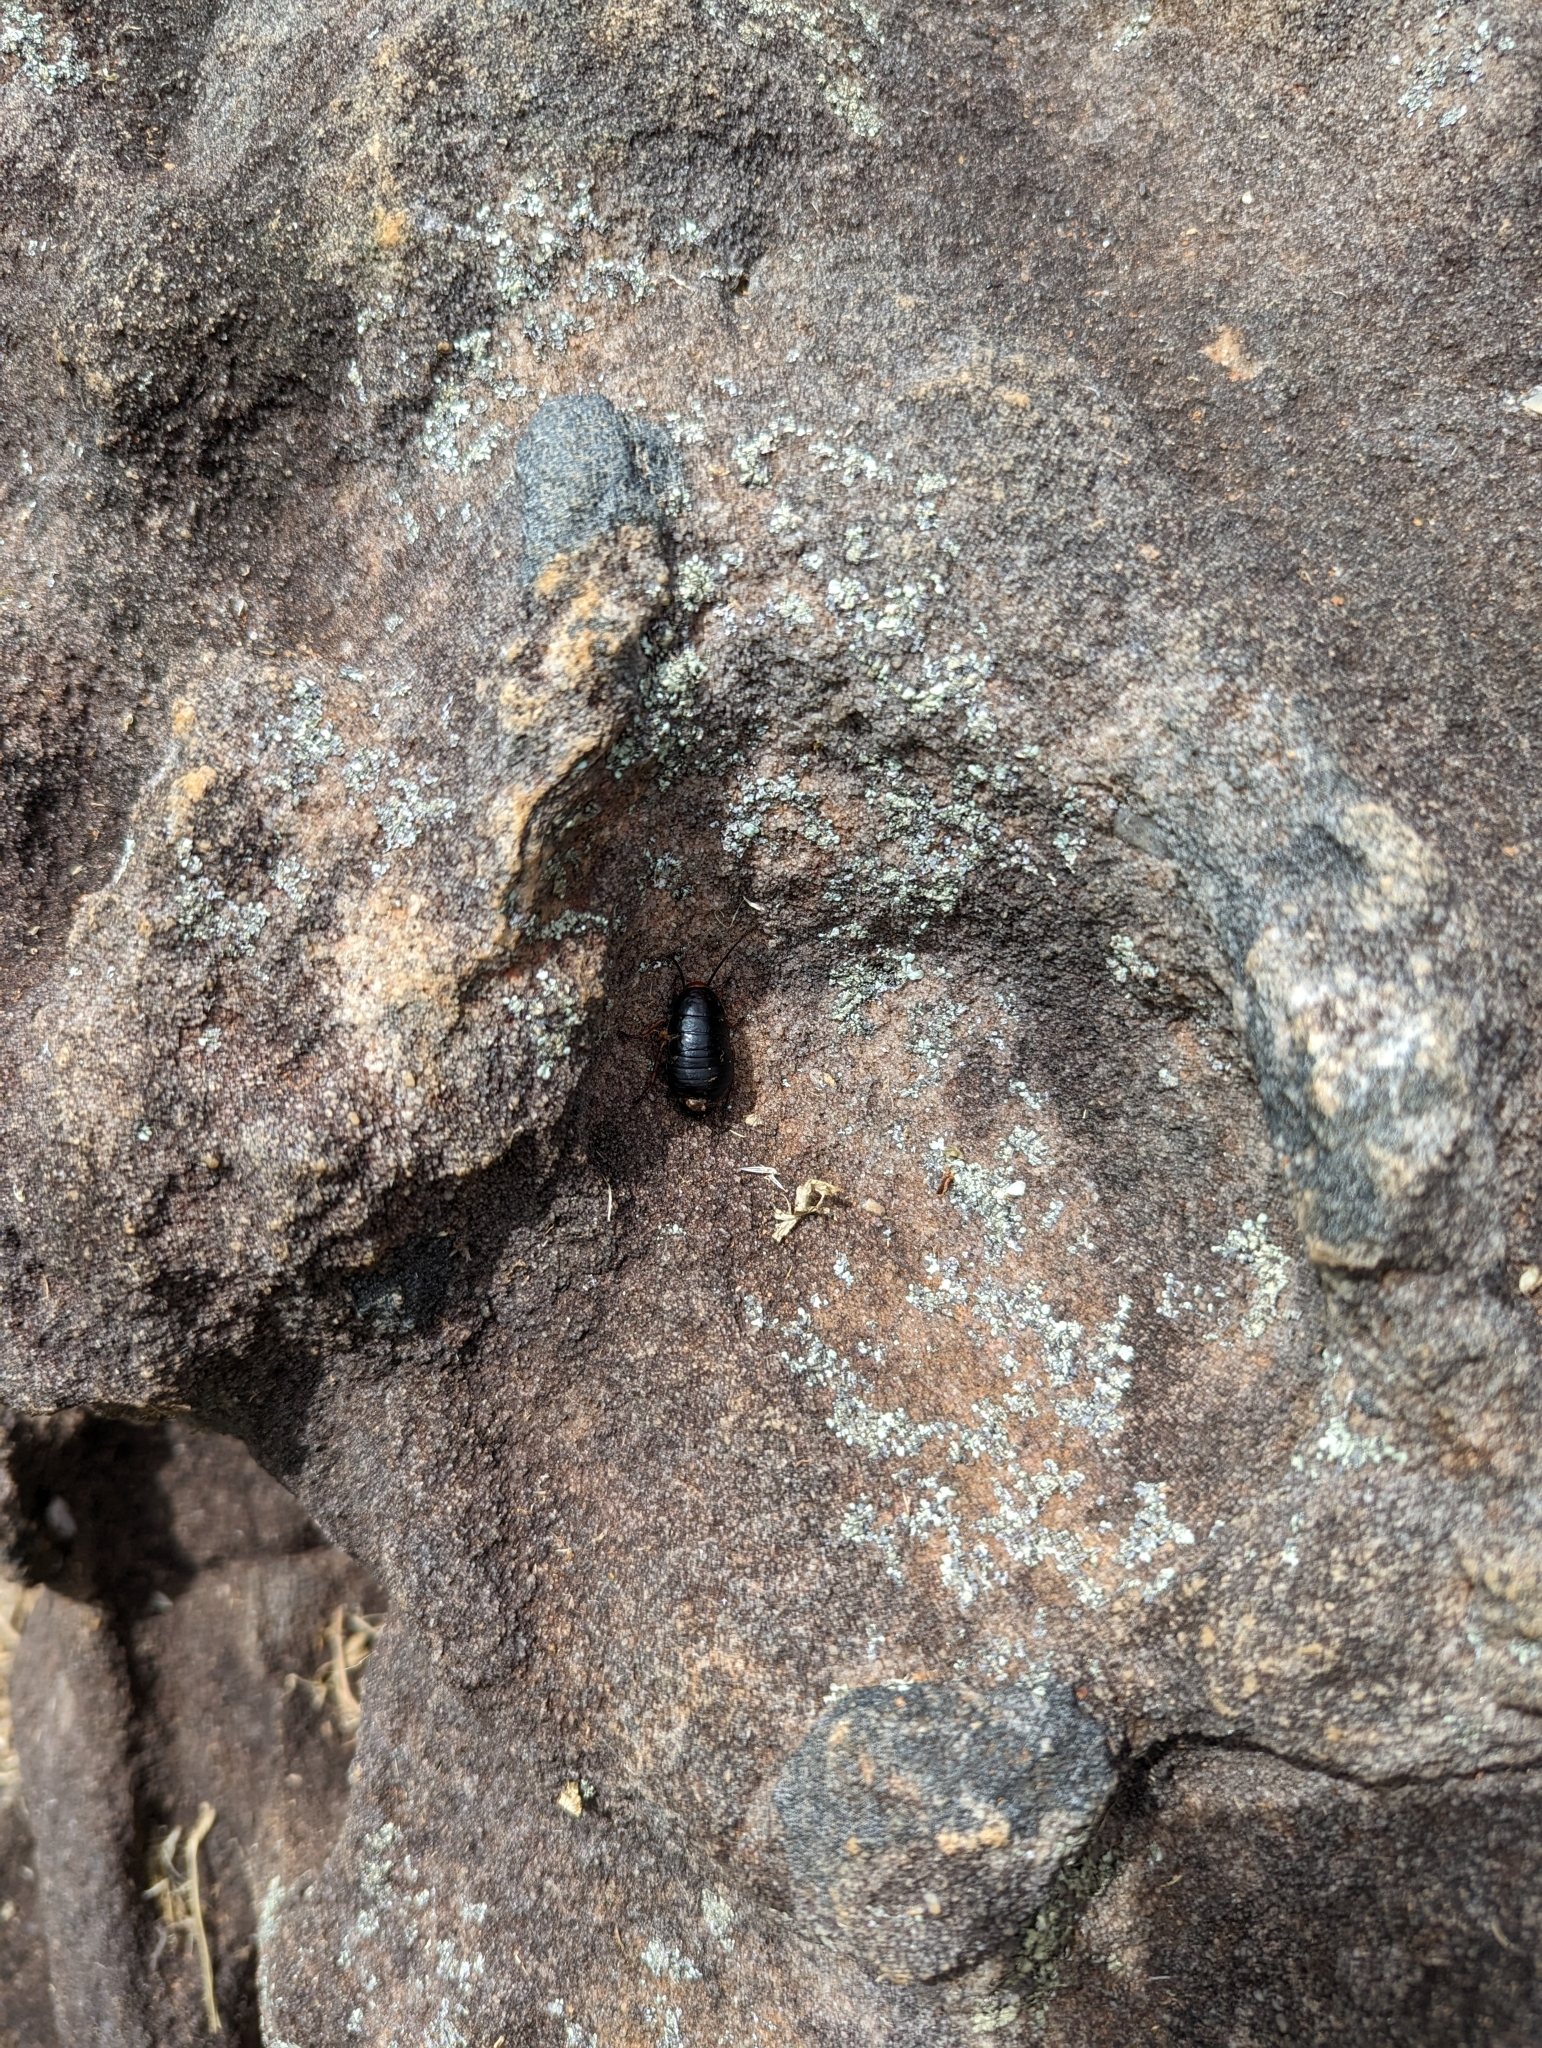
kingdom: Animalia
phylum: Arthropoda
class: Insecta
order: Blattodea
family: Blattidae
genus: Deropeltis
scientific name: Deropeltis erythrocephala
